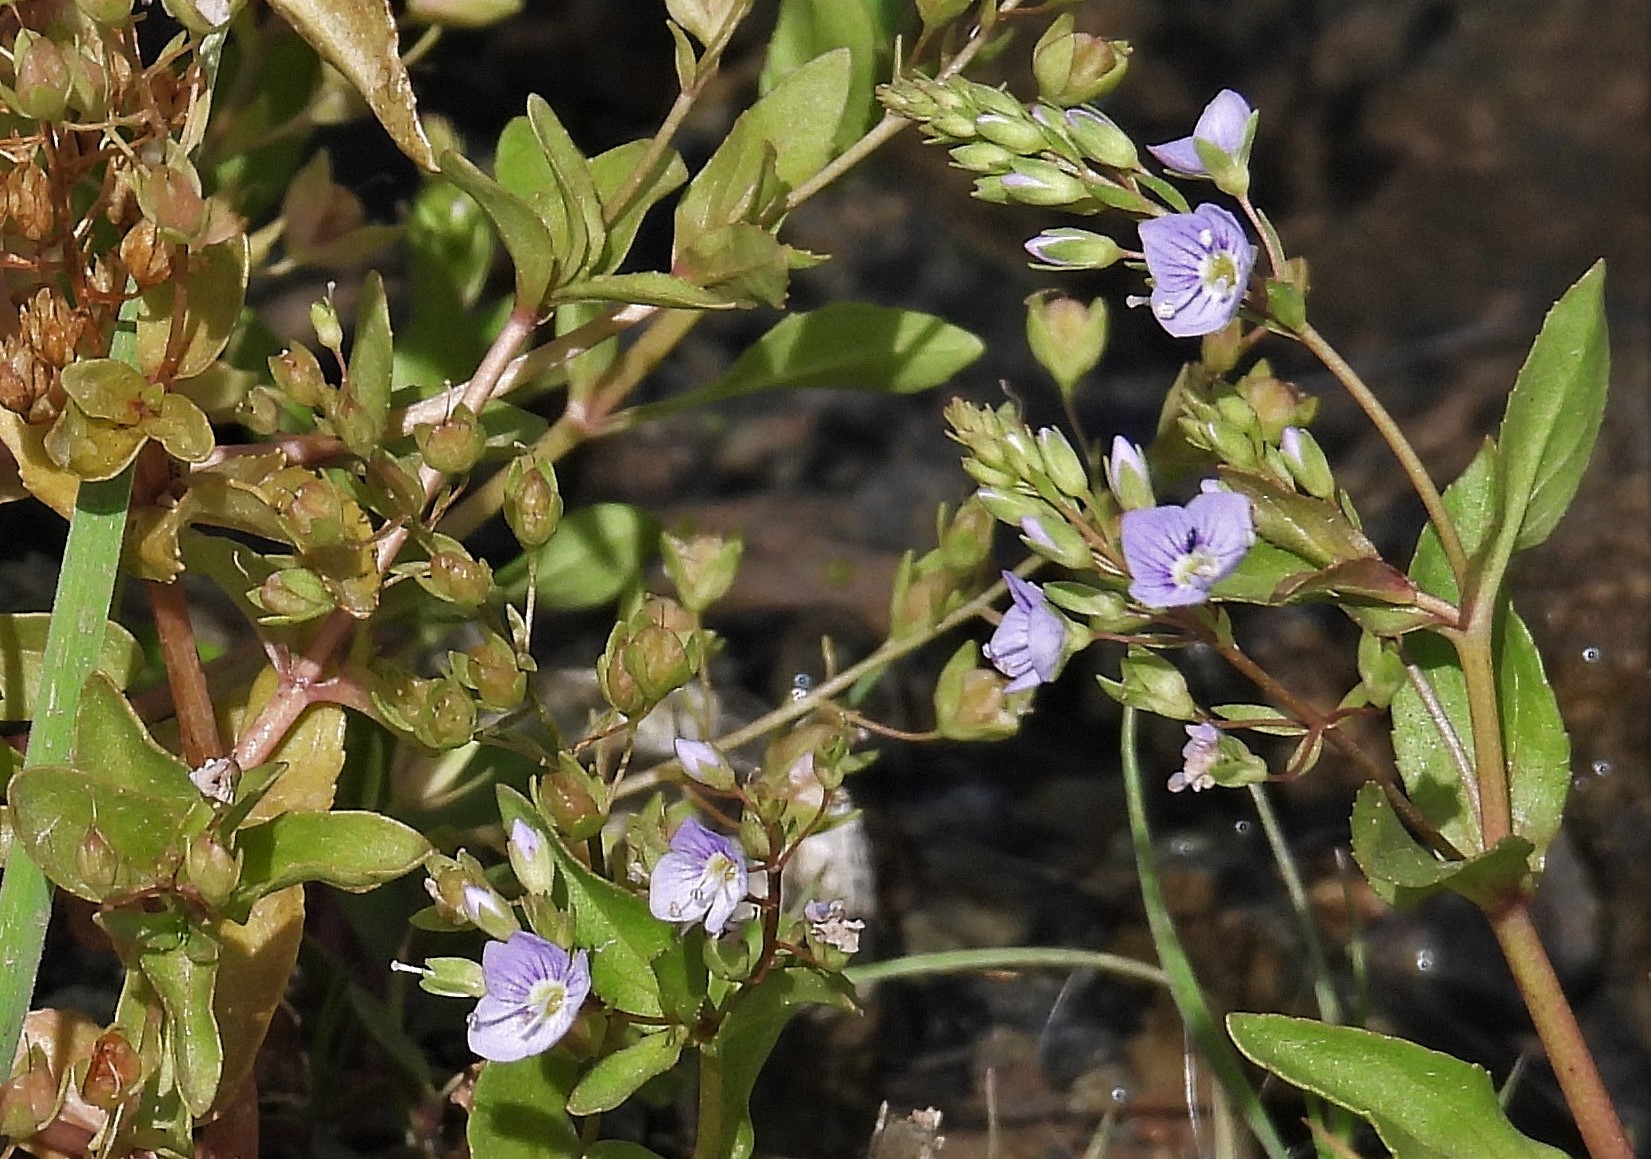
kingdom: Plantae
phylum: Tracheophyta
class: Magnoliopsida
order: Lamiales
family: Plantaginaceae
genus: Veronica
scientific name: Veronica anagallis-aquatica
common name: Water speedwell
